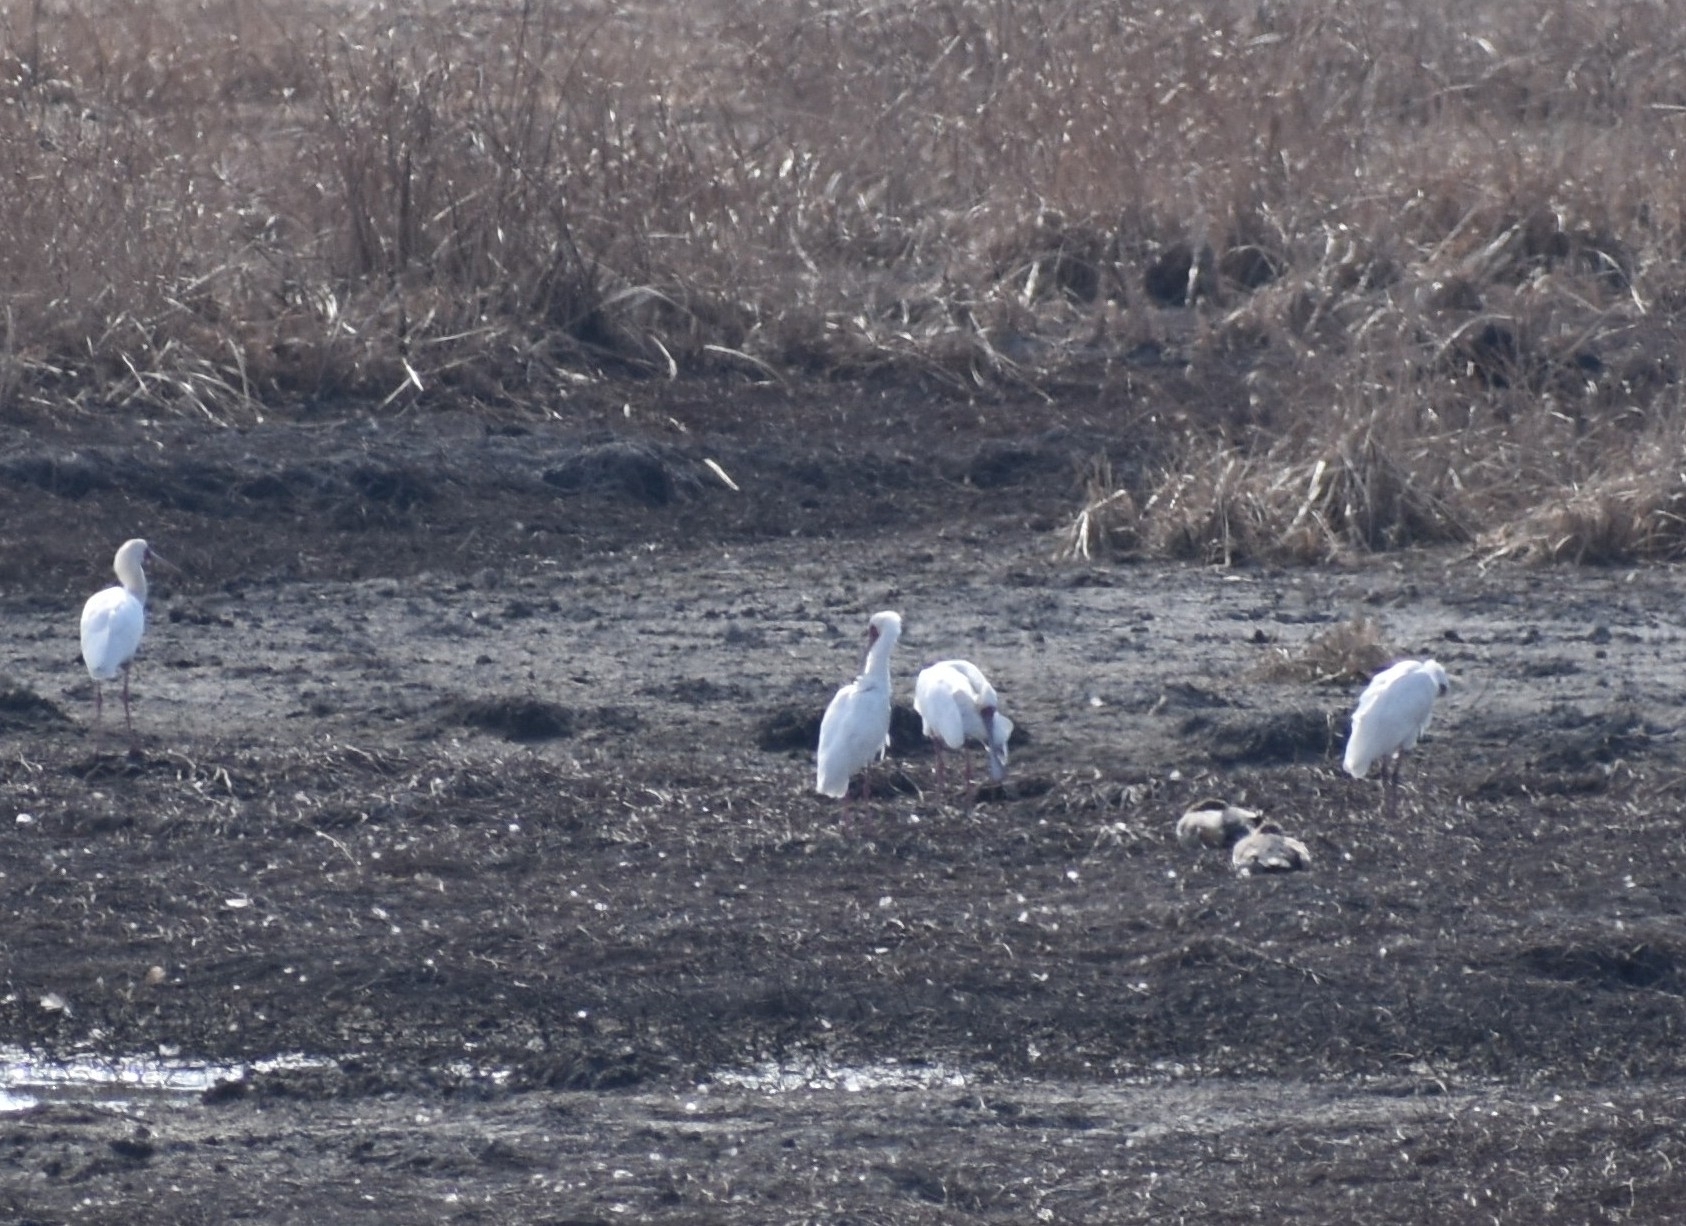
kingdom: Animalia
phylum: Chordata
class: Aves
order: Pelecaniformes
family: Threskiornithidae
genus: Platalea
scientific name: Platalea alba
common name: African spoonbill
